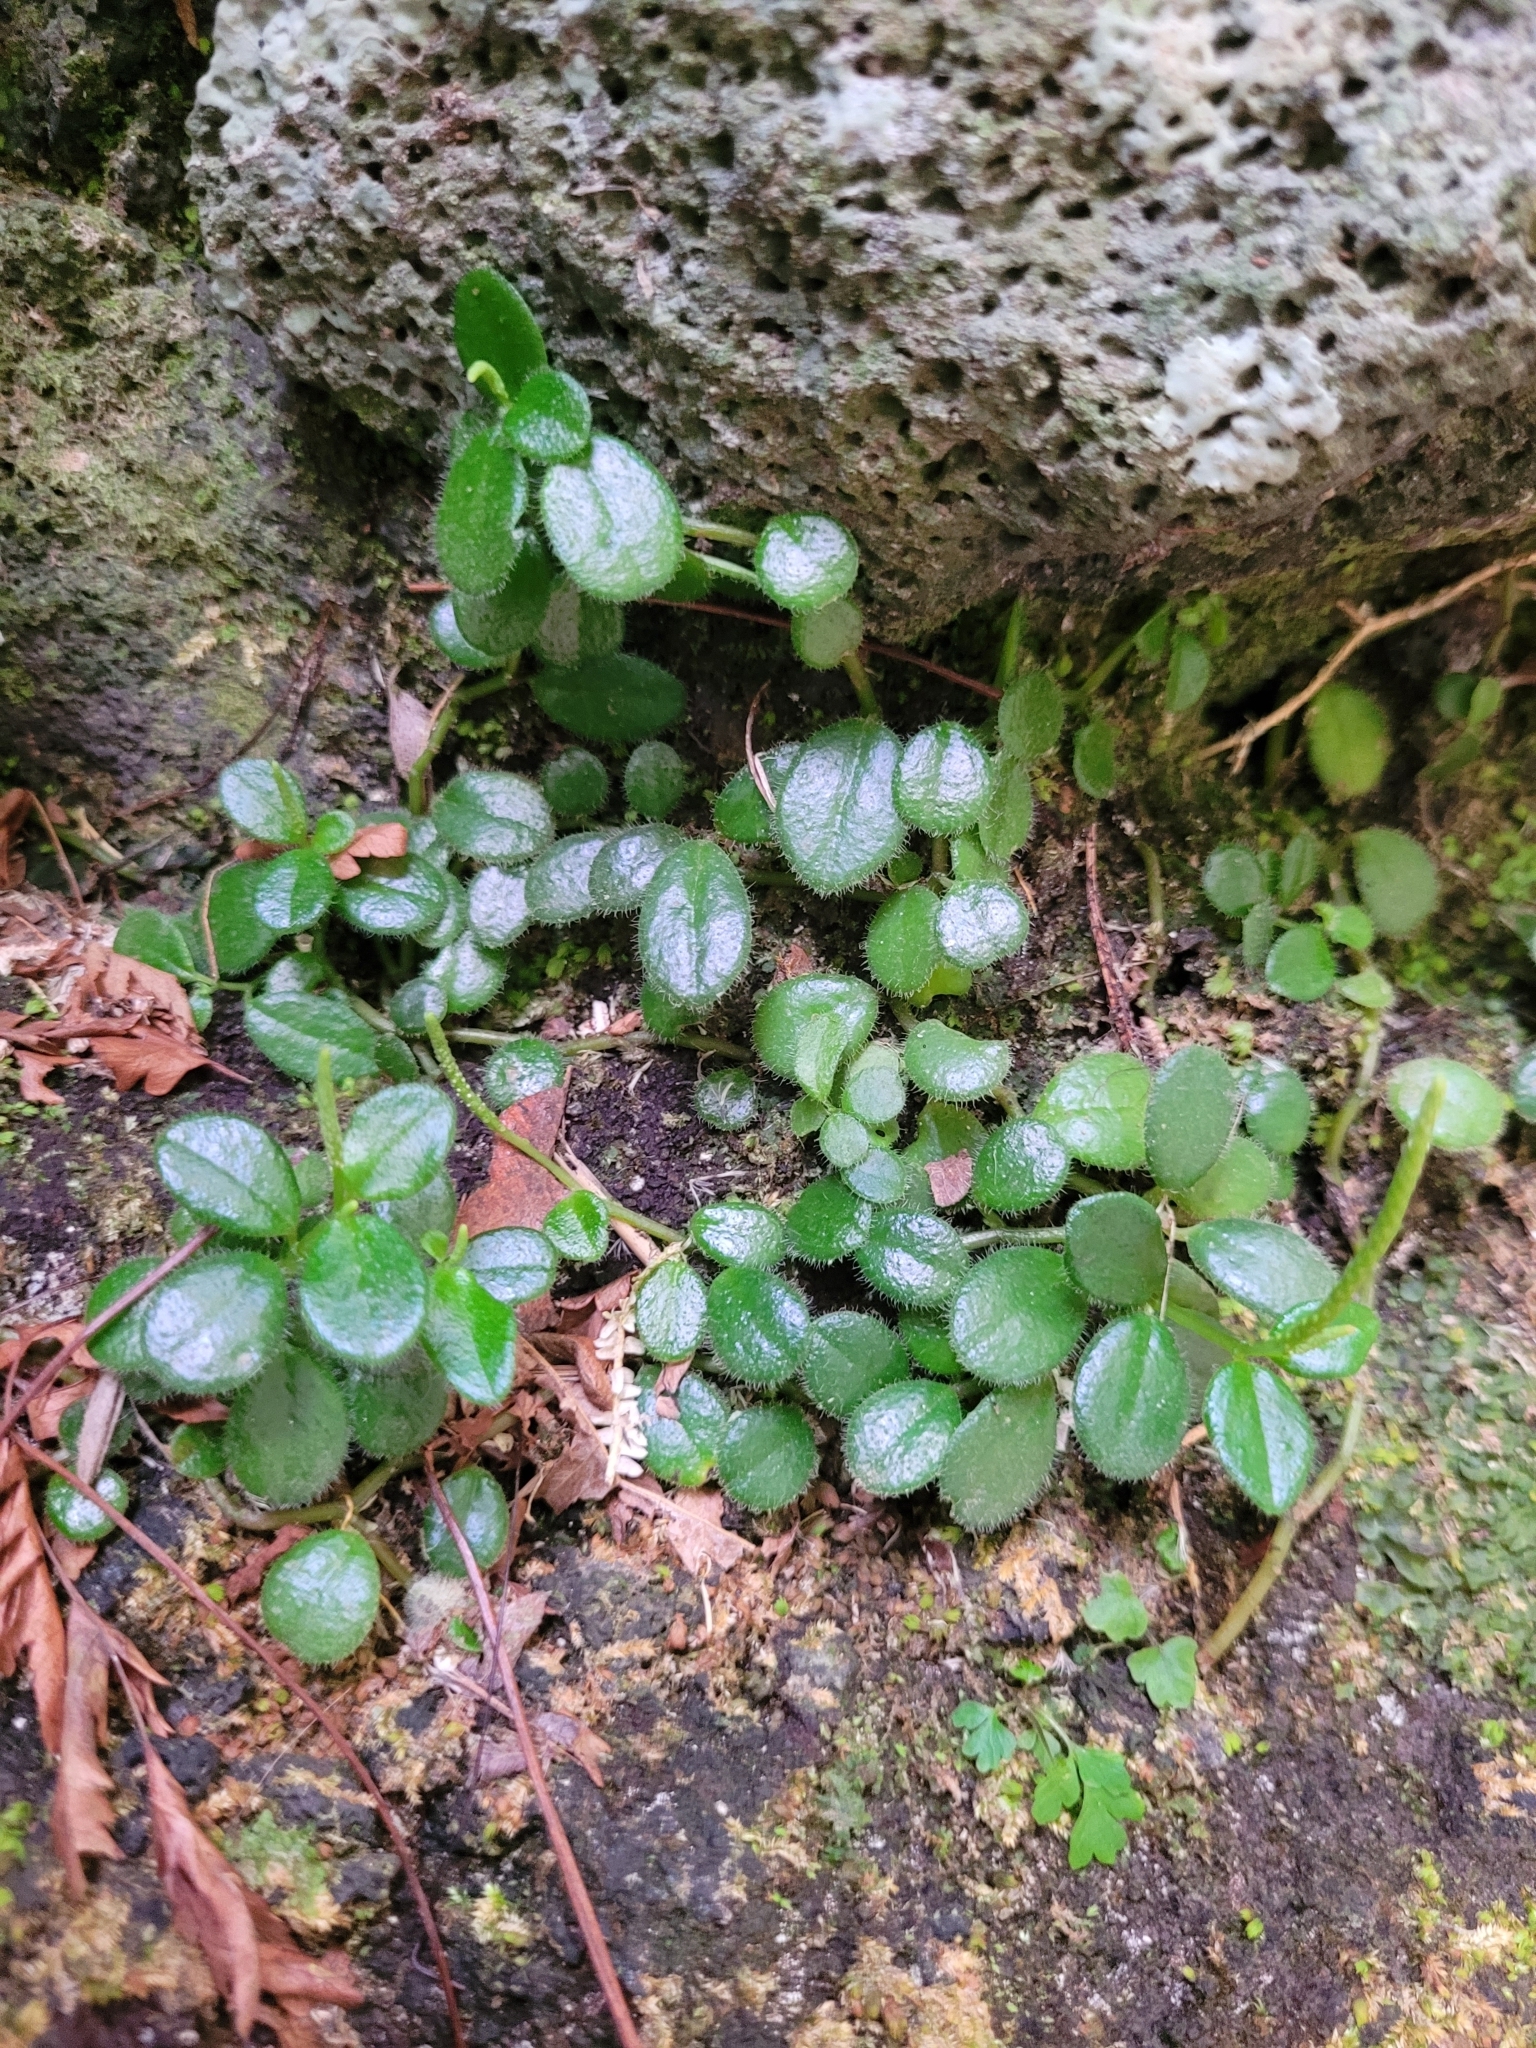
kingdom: Plantae
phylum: Tracheophyta
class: Magnoliopsida
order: Piperales
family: Piperaceae
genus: Peperomia
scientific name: Peperomia goudotii
